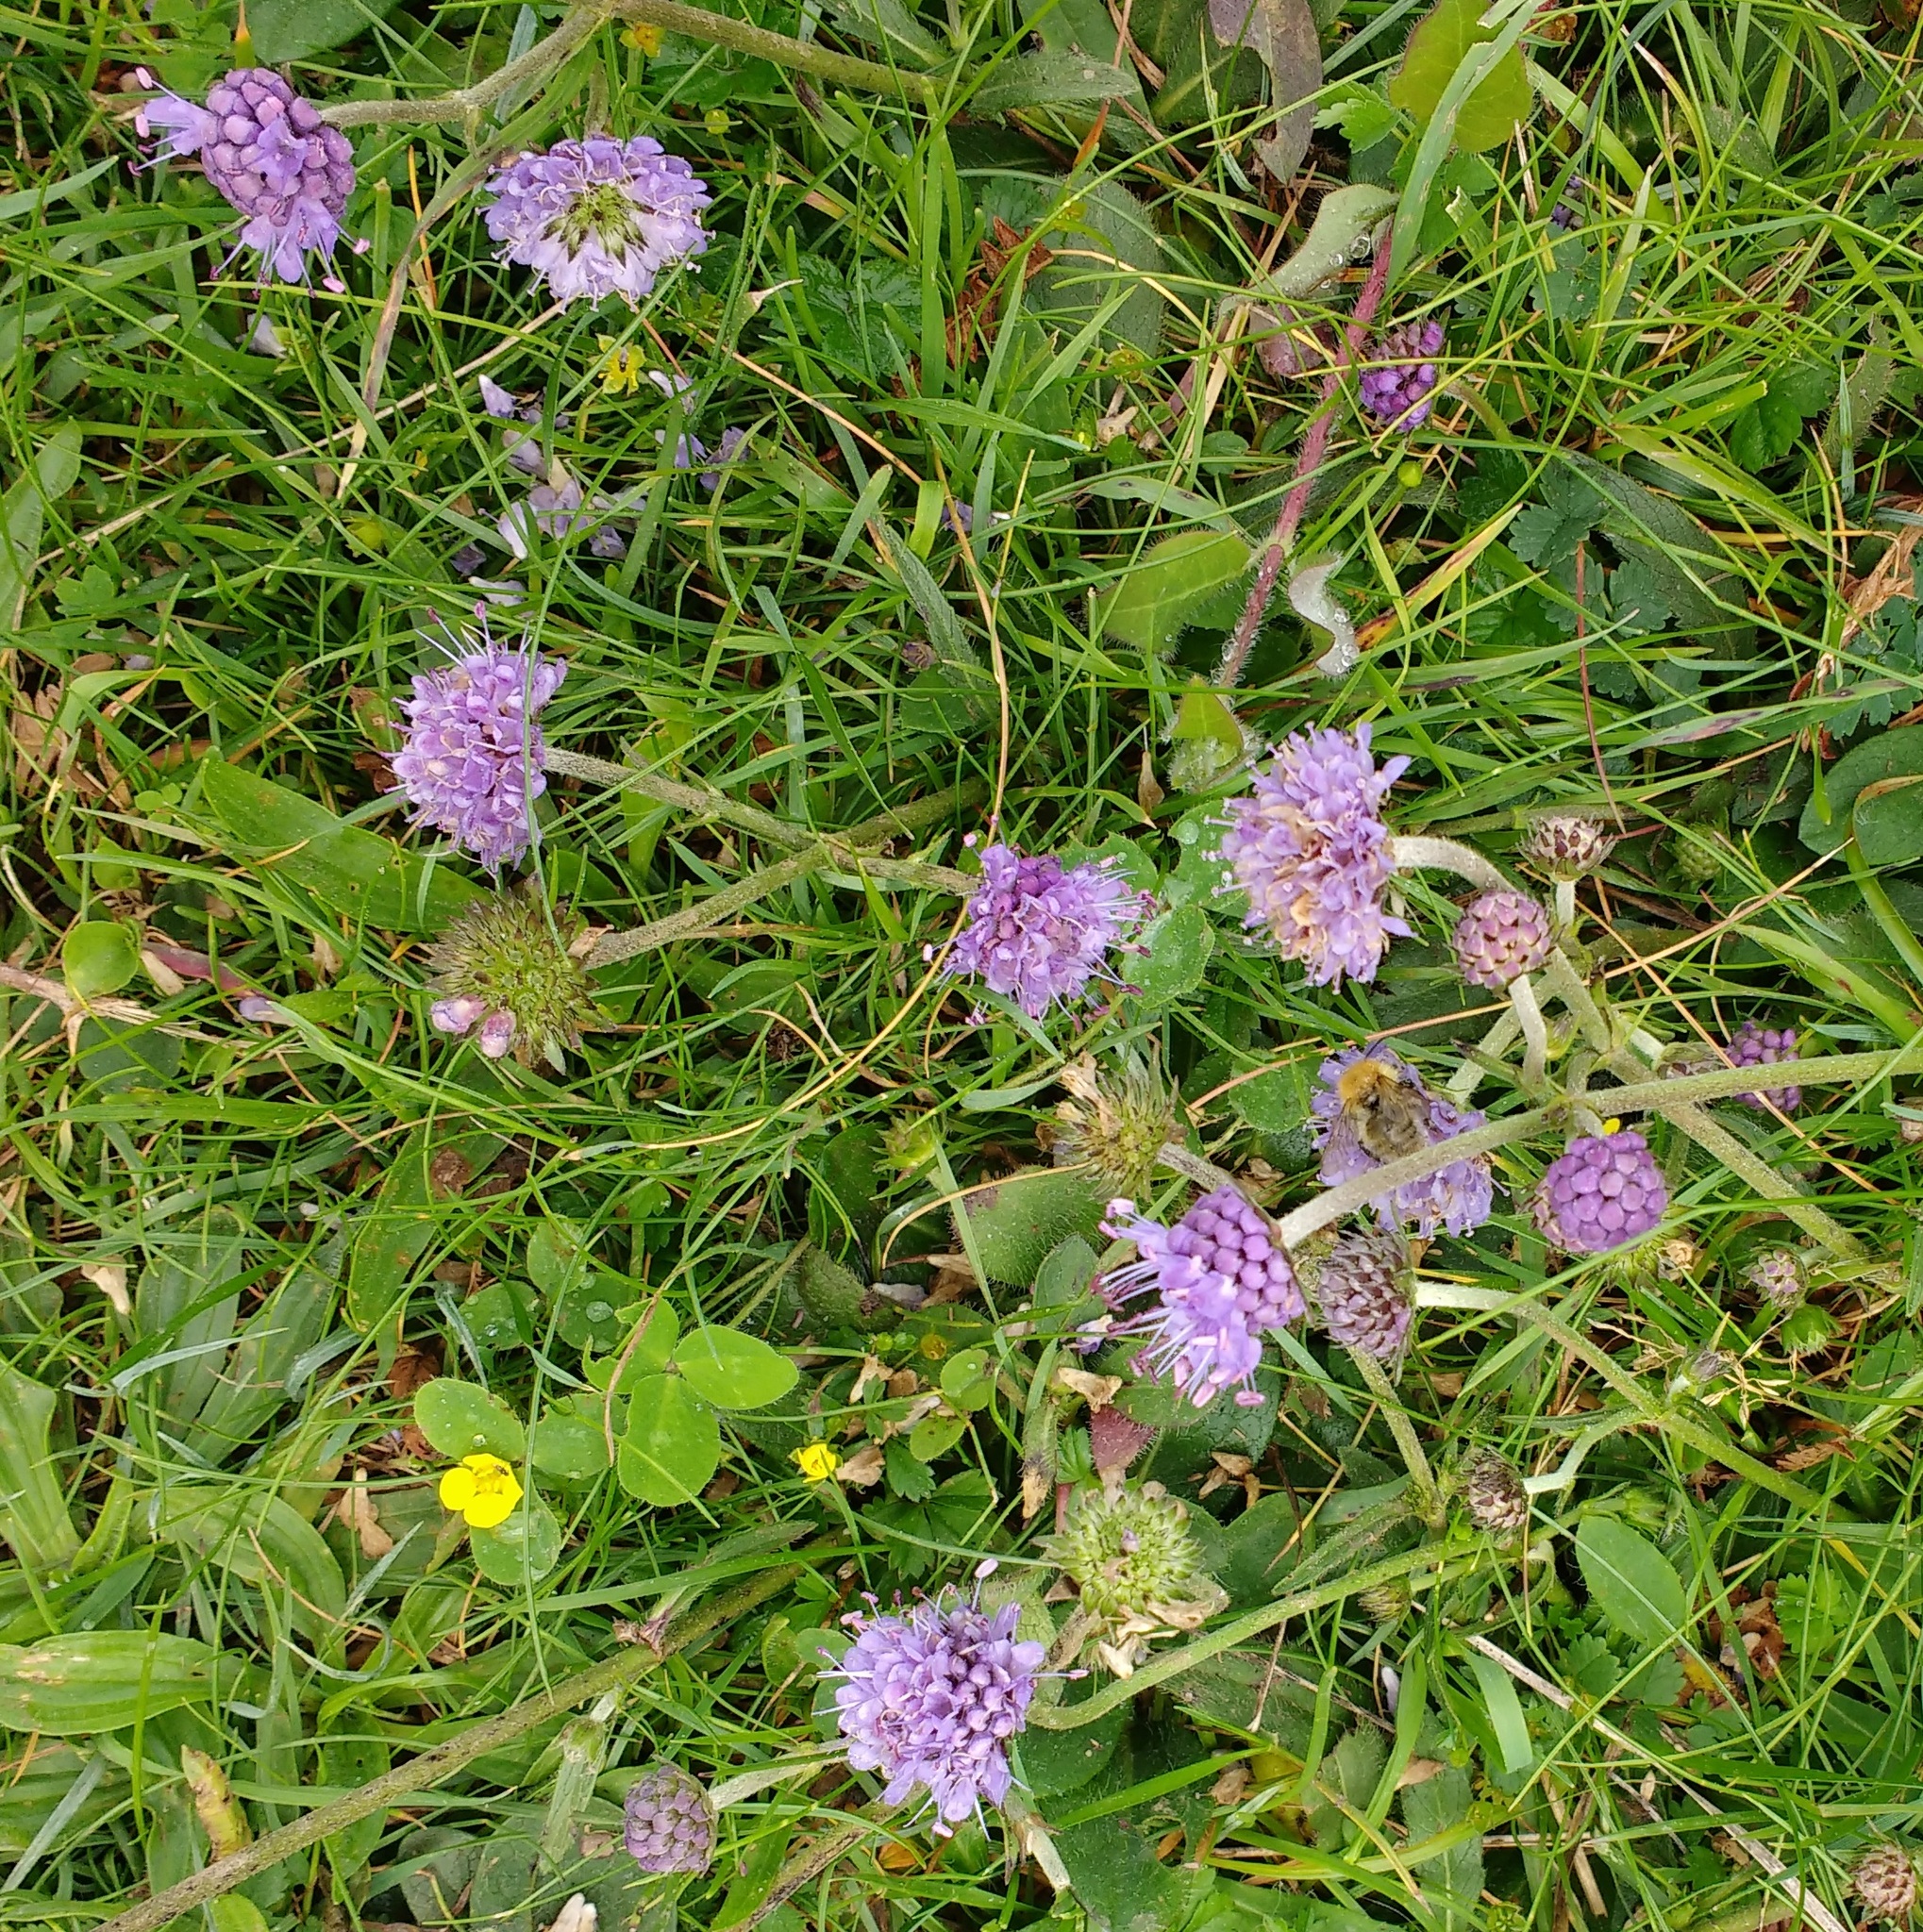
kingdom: Plantae
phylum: Tracheophyta
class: Magnoliopsida
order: Dipsacales
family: Caprifoliaceae
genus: Succisa
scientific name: Succisa pratensis
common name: Devil's-bit
